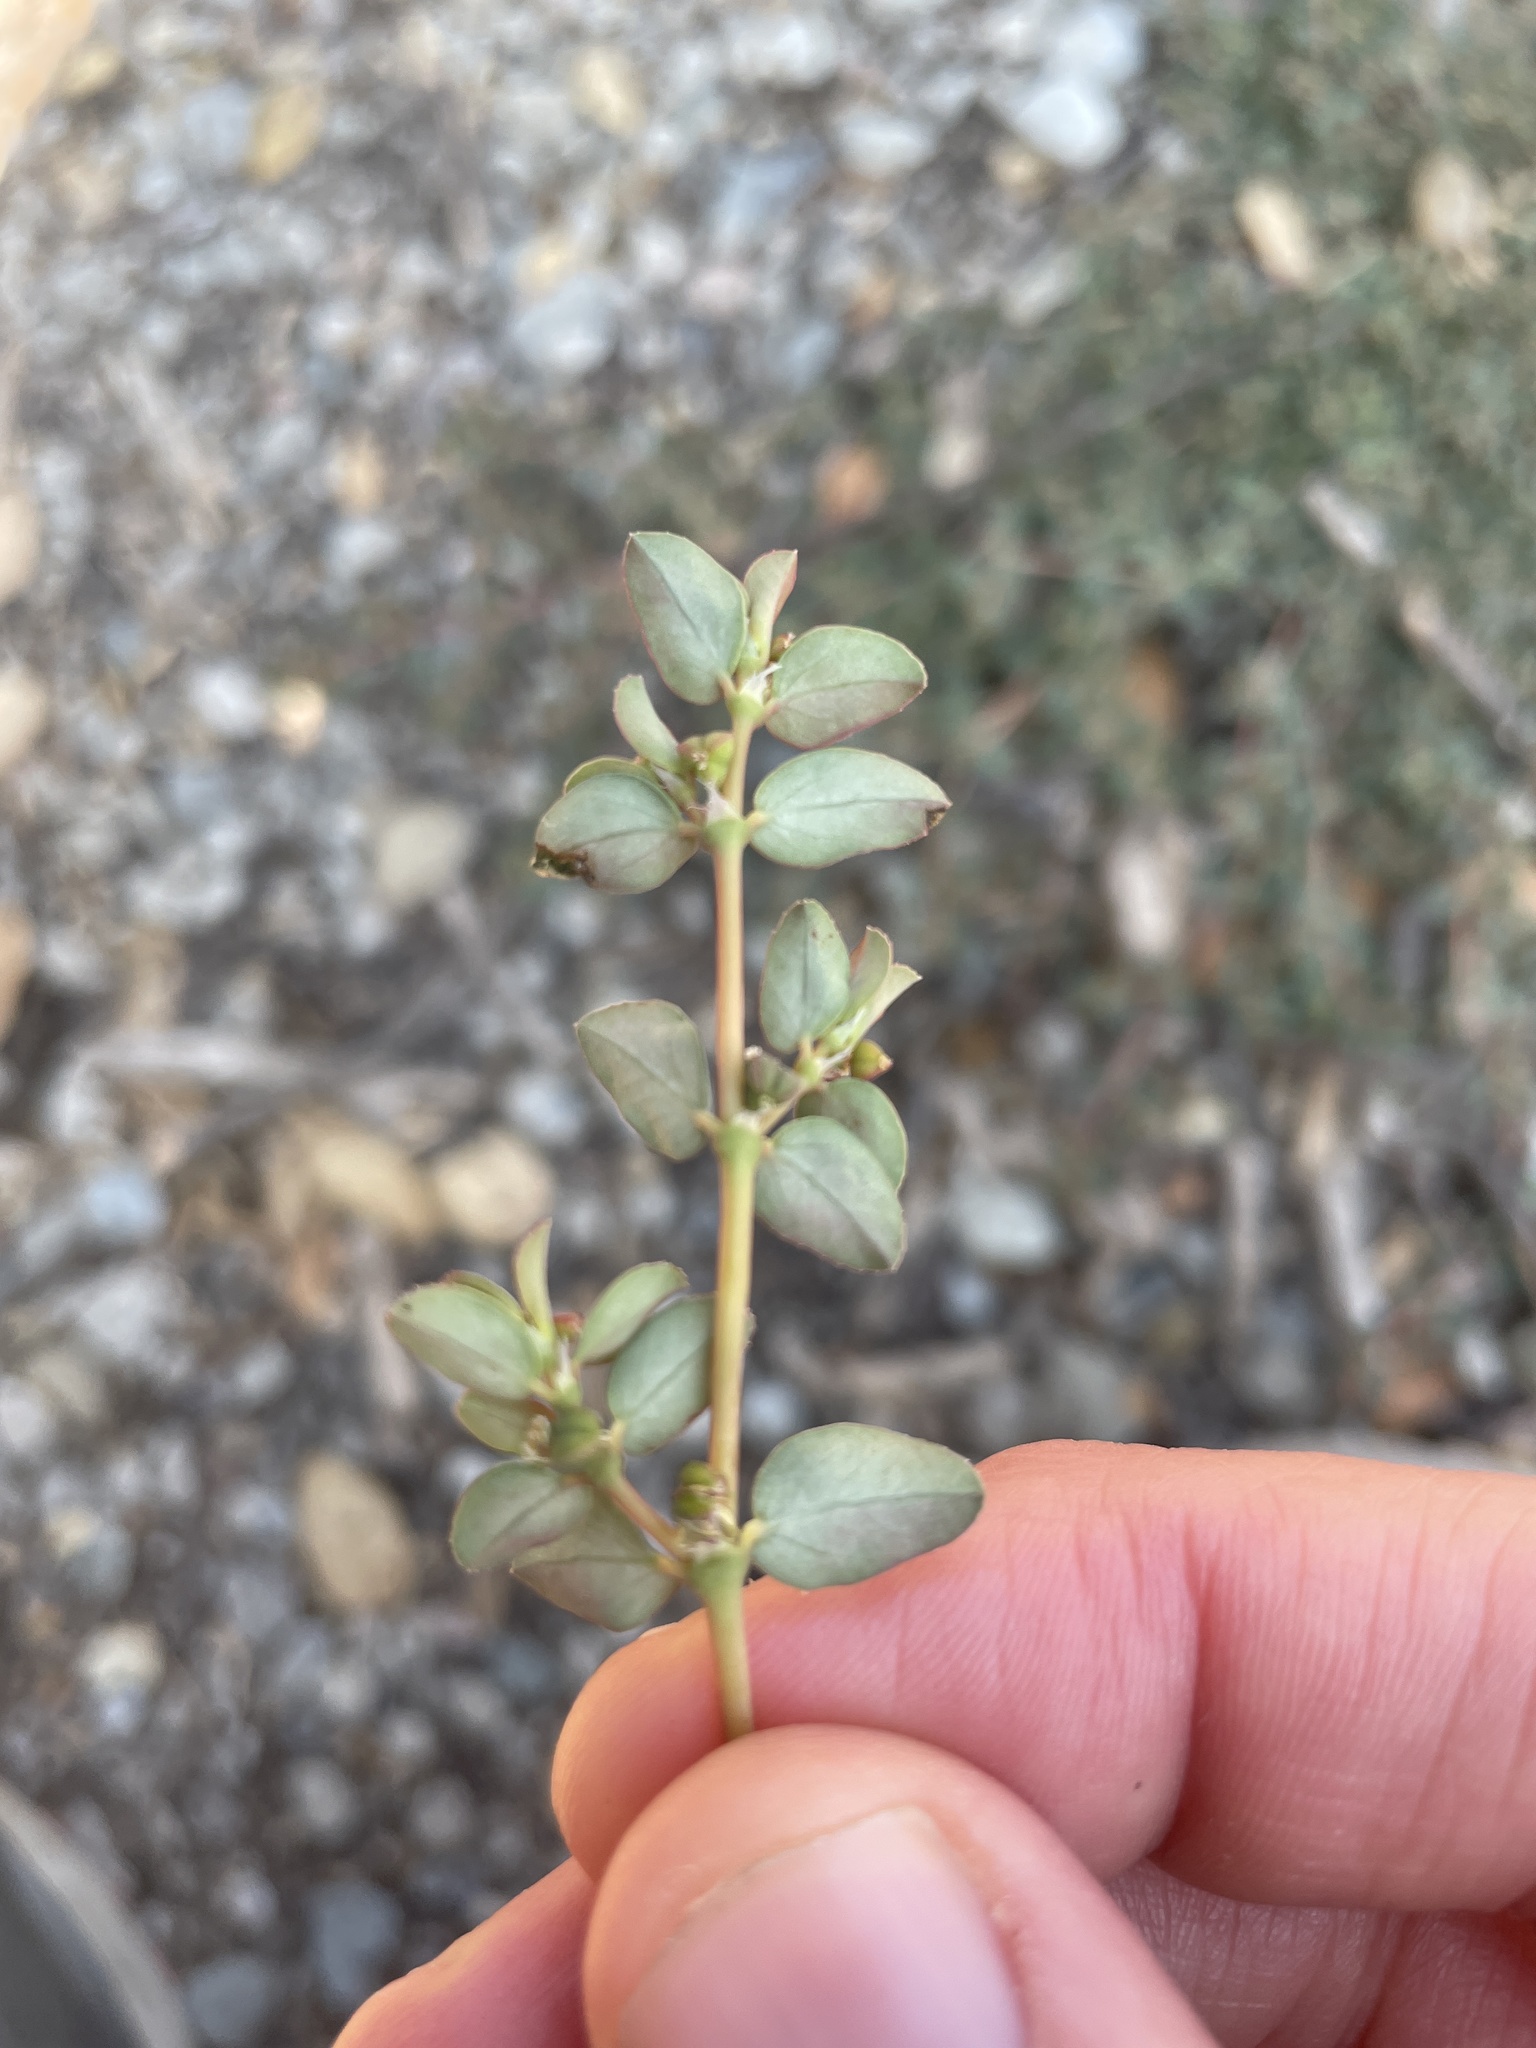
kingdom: Plantae
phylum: Tracheophyta
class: Magnoliopsida
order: Malpighiales
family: Euphorbiaceae
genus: Euphorbia
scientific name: Euphorbia serpillifolia
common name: Thyme-leaf spurge
